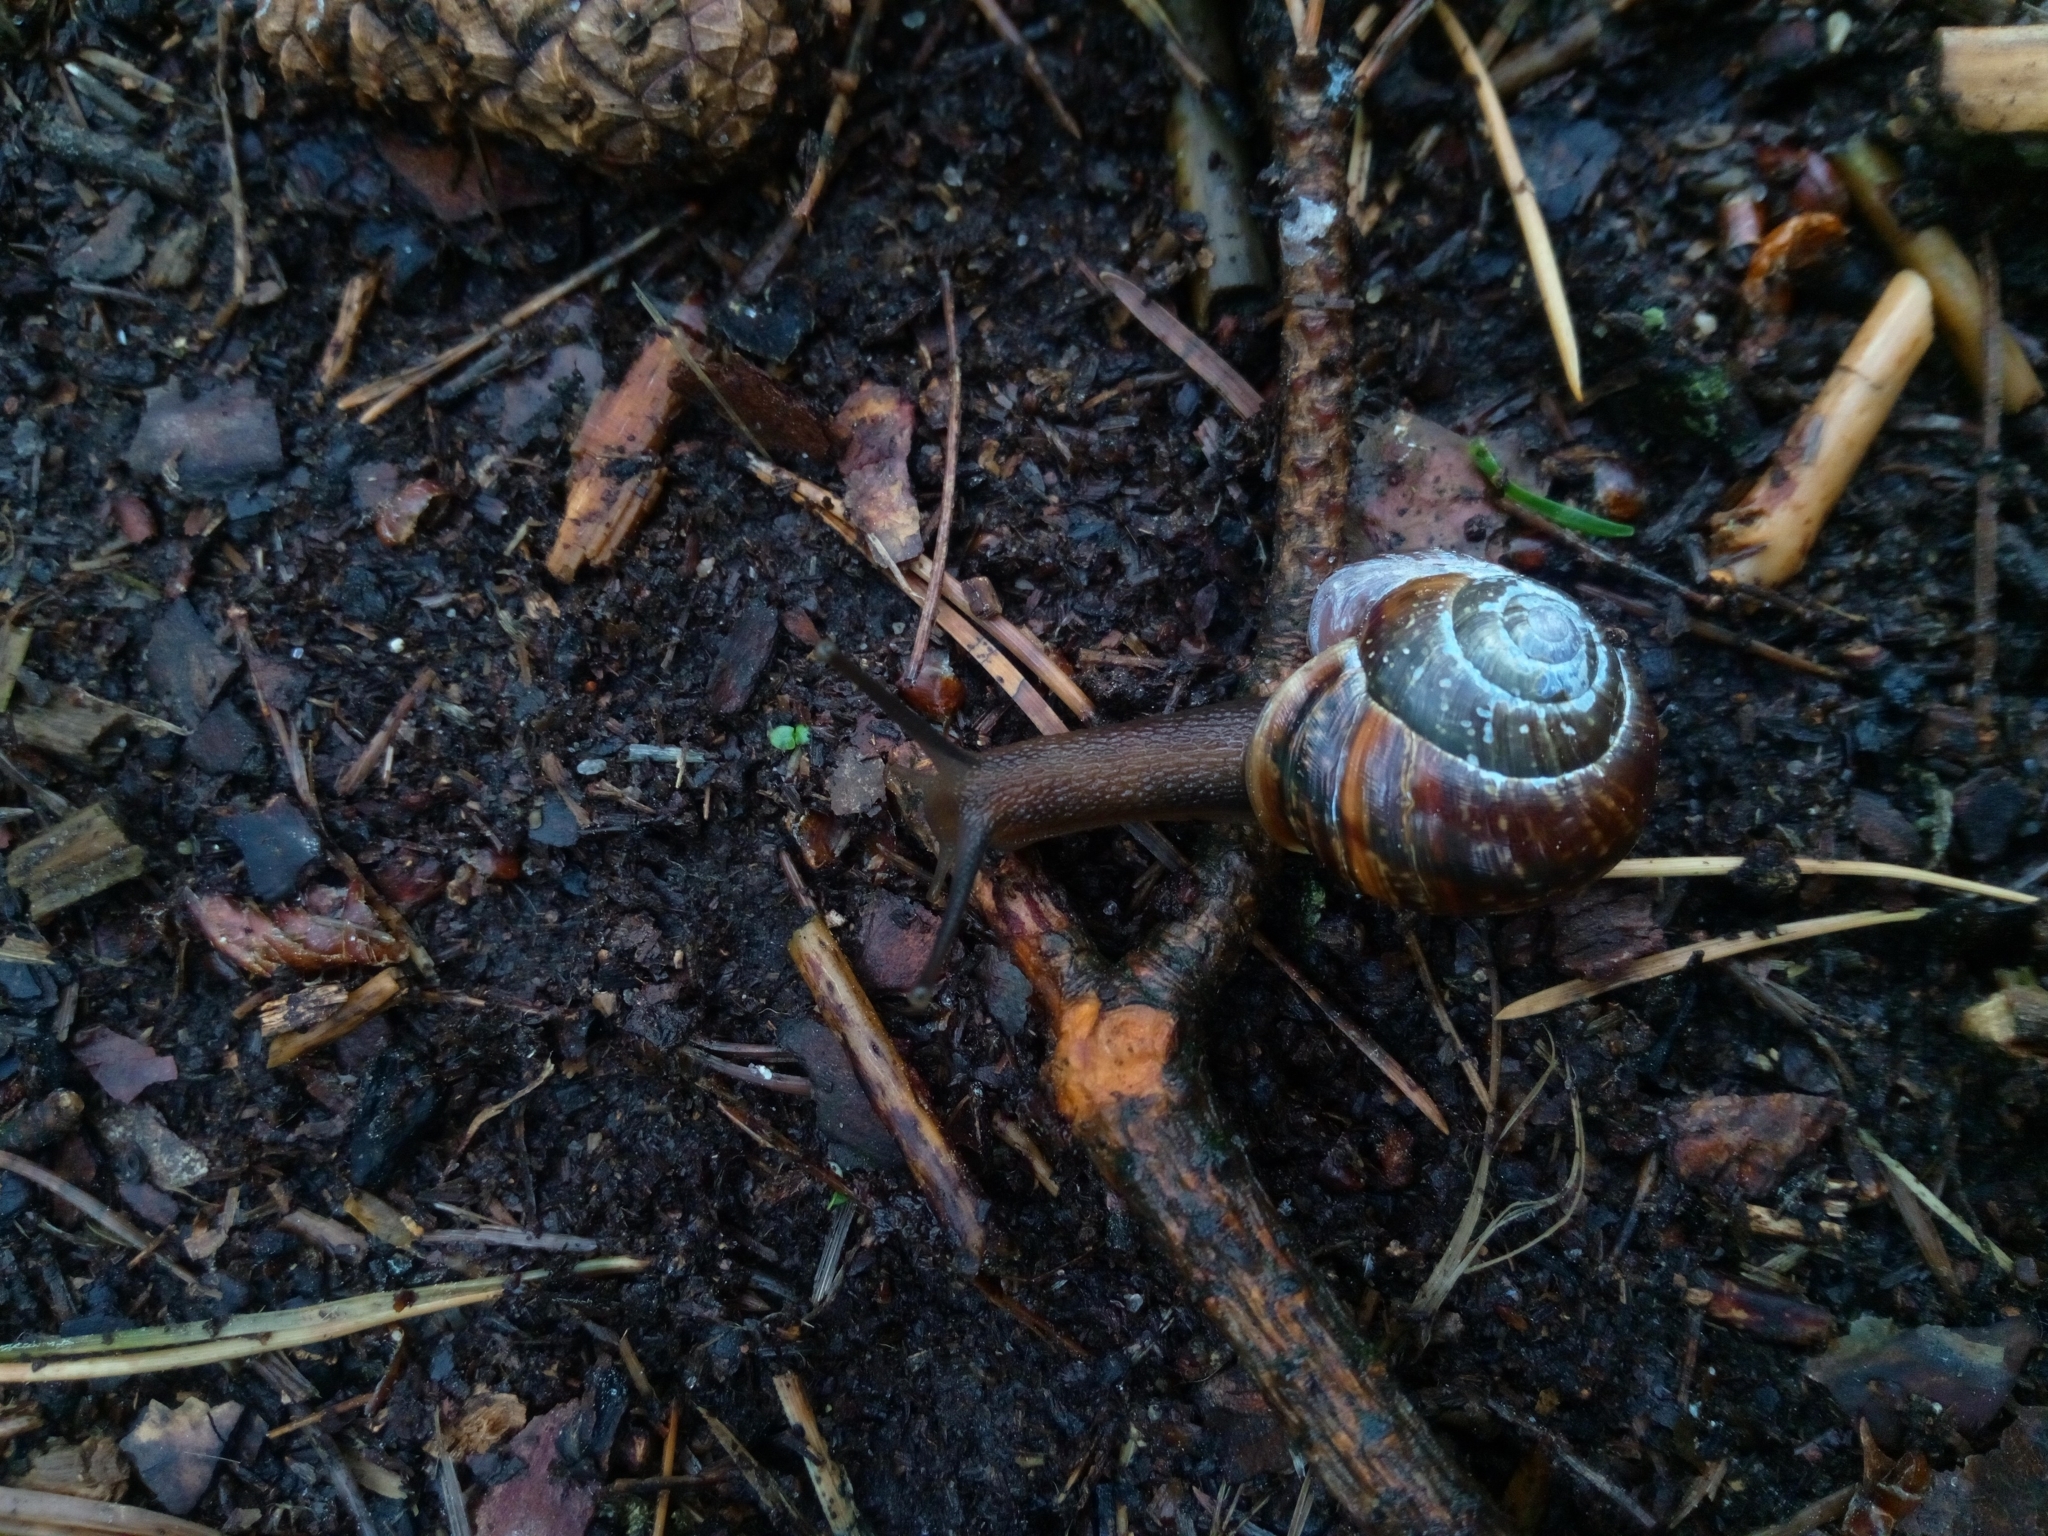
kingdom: Animalia
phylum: Mollusca
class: Gastropoda
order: Stylommatophora
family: Helicidae
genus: Arianta
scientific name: Arianta arbustorum
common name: Copse snail
